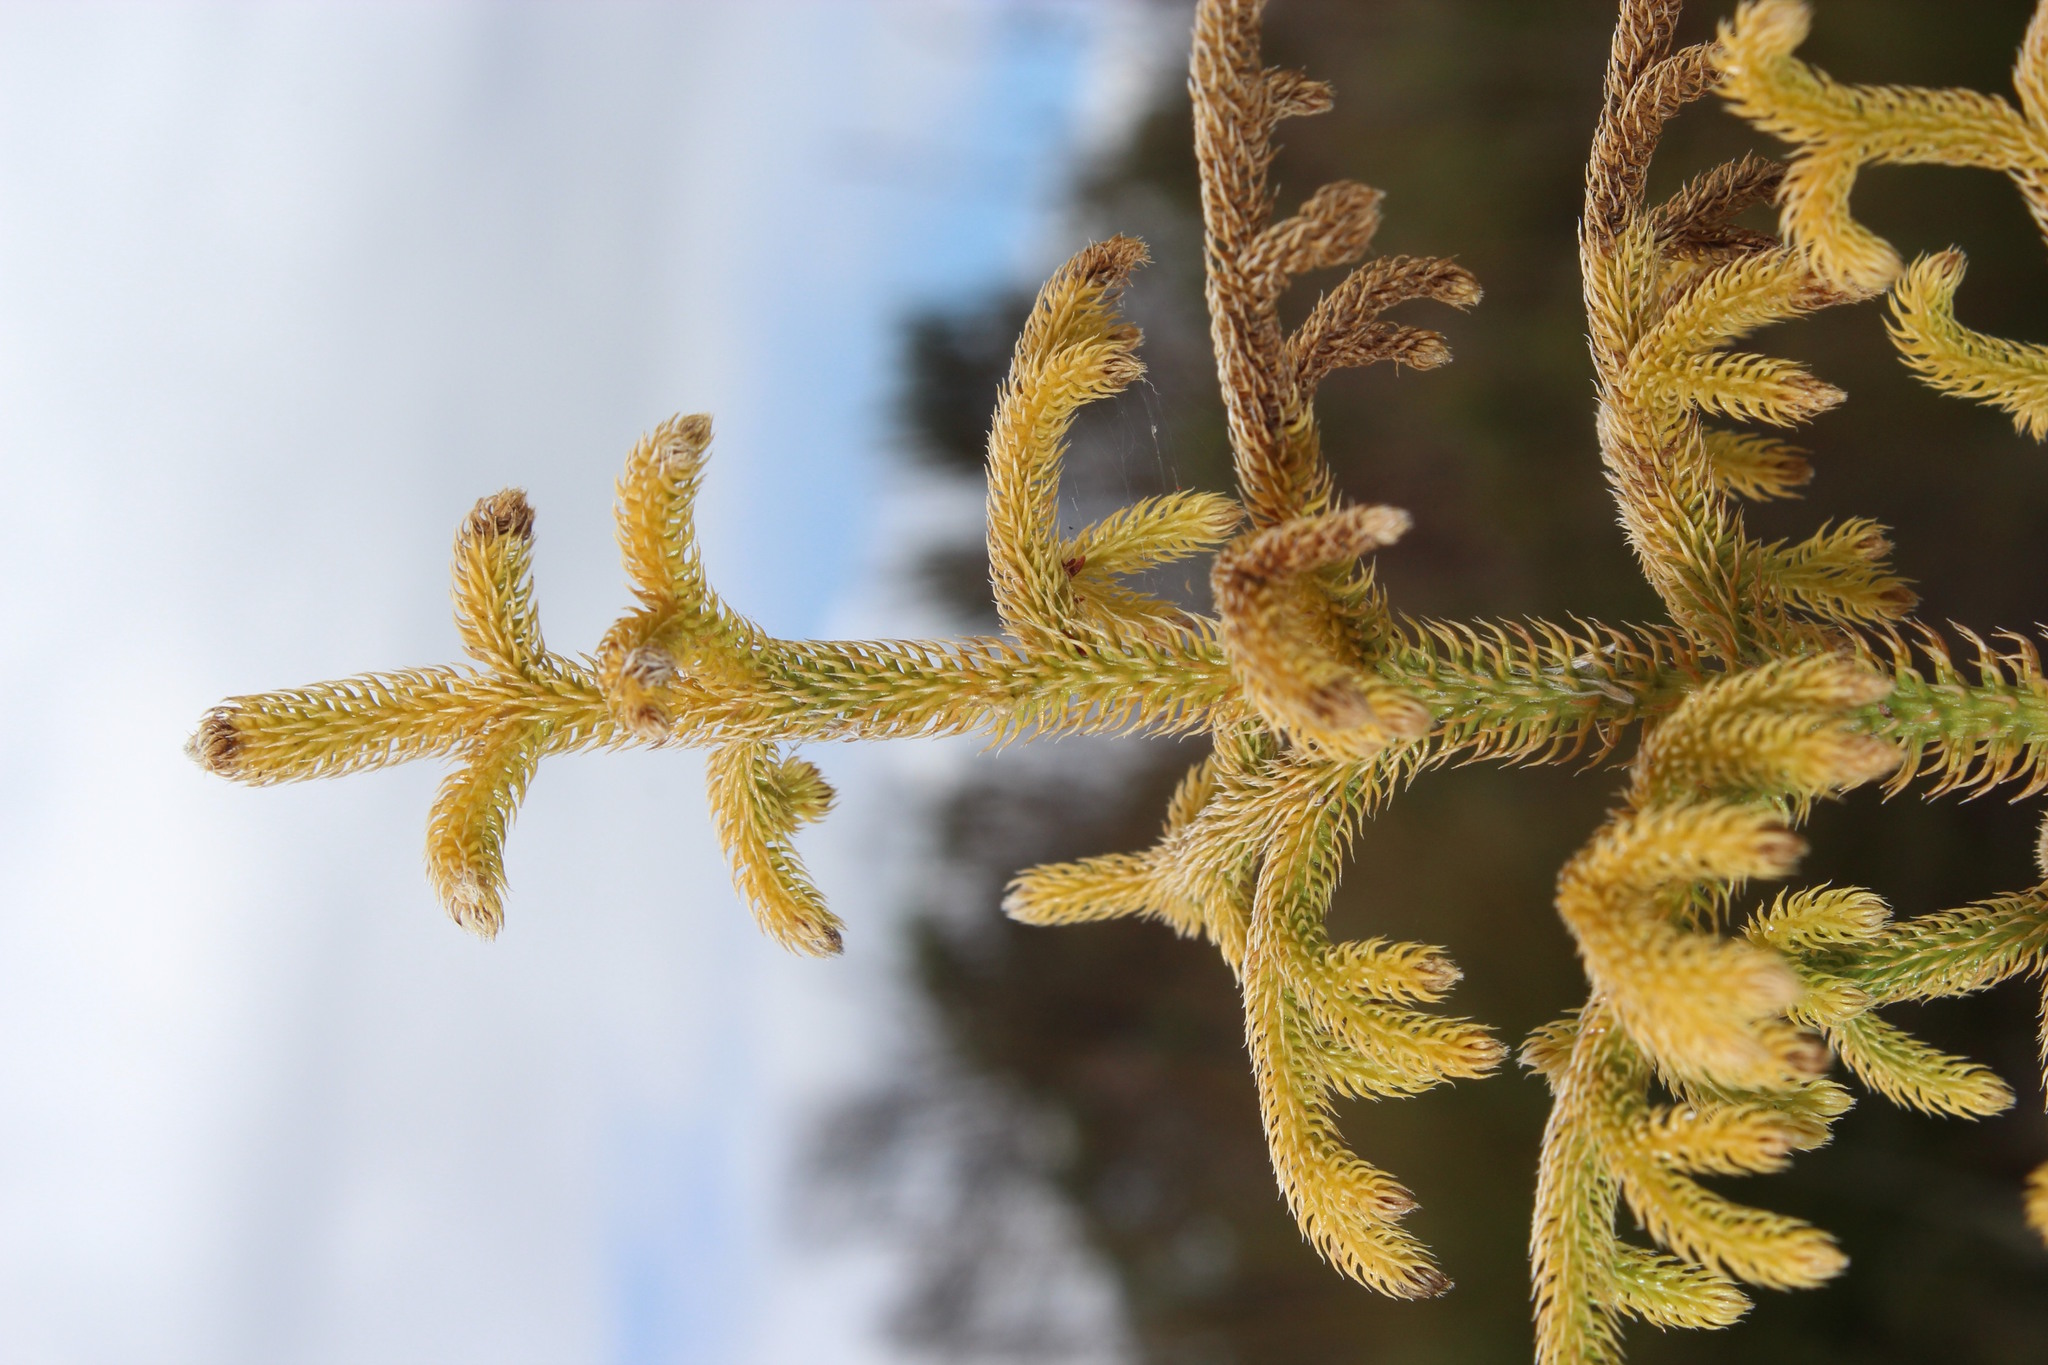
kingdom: Plantae
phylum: Tracheophyta
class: Lycopodiopsida
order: Lycopodiales
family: Lycopodiaceae
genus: Palhinhaea
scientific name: Palhinhaea cernua
